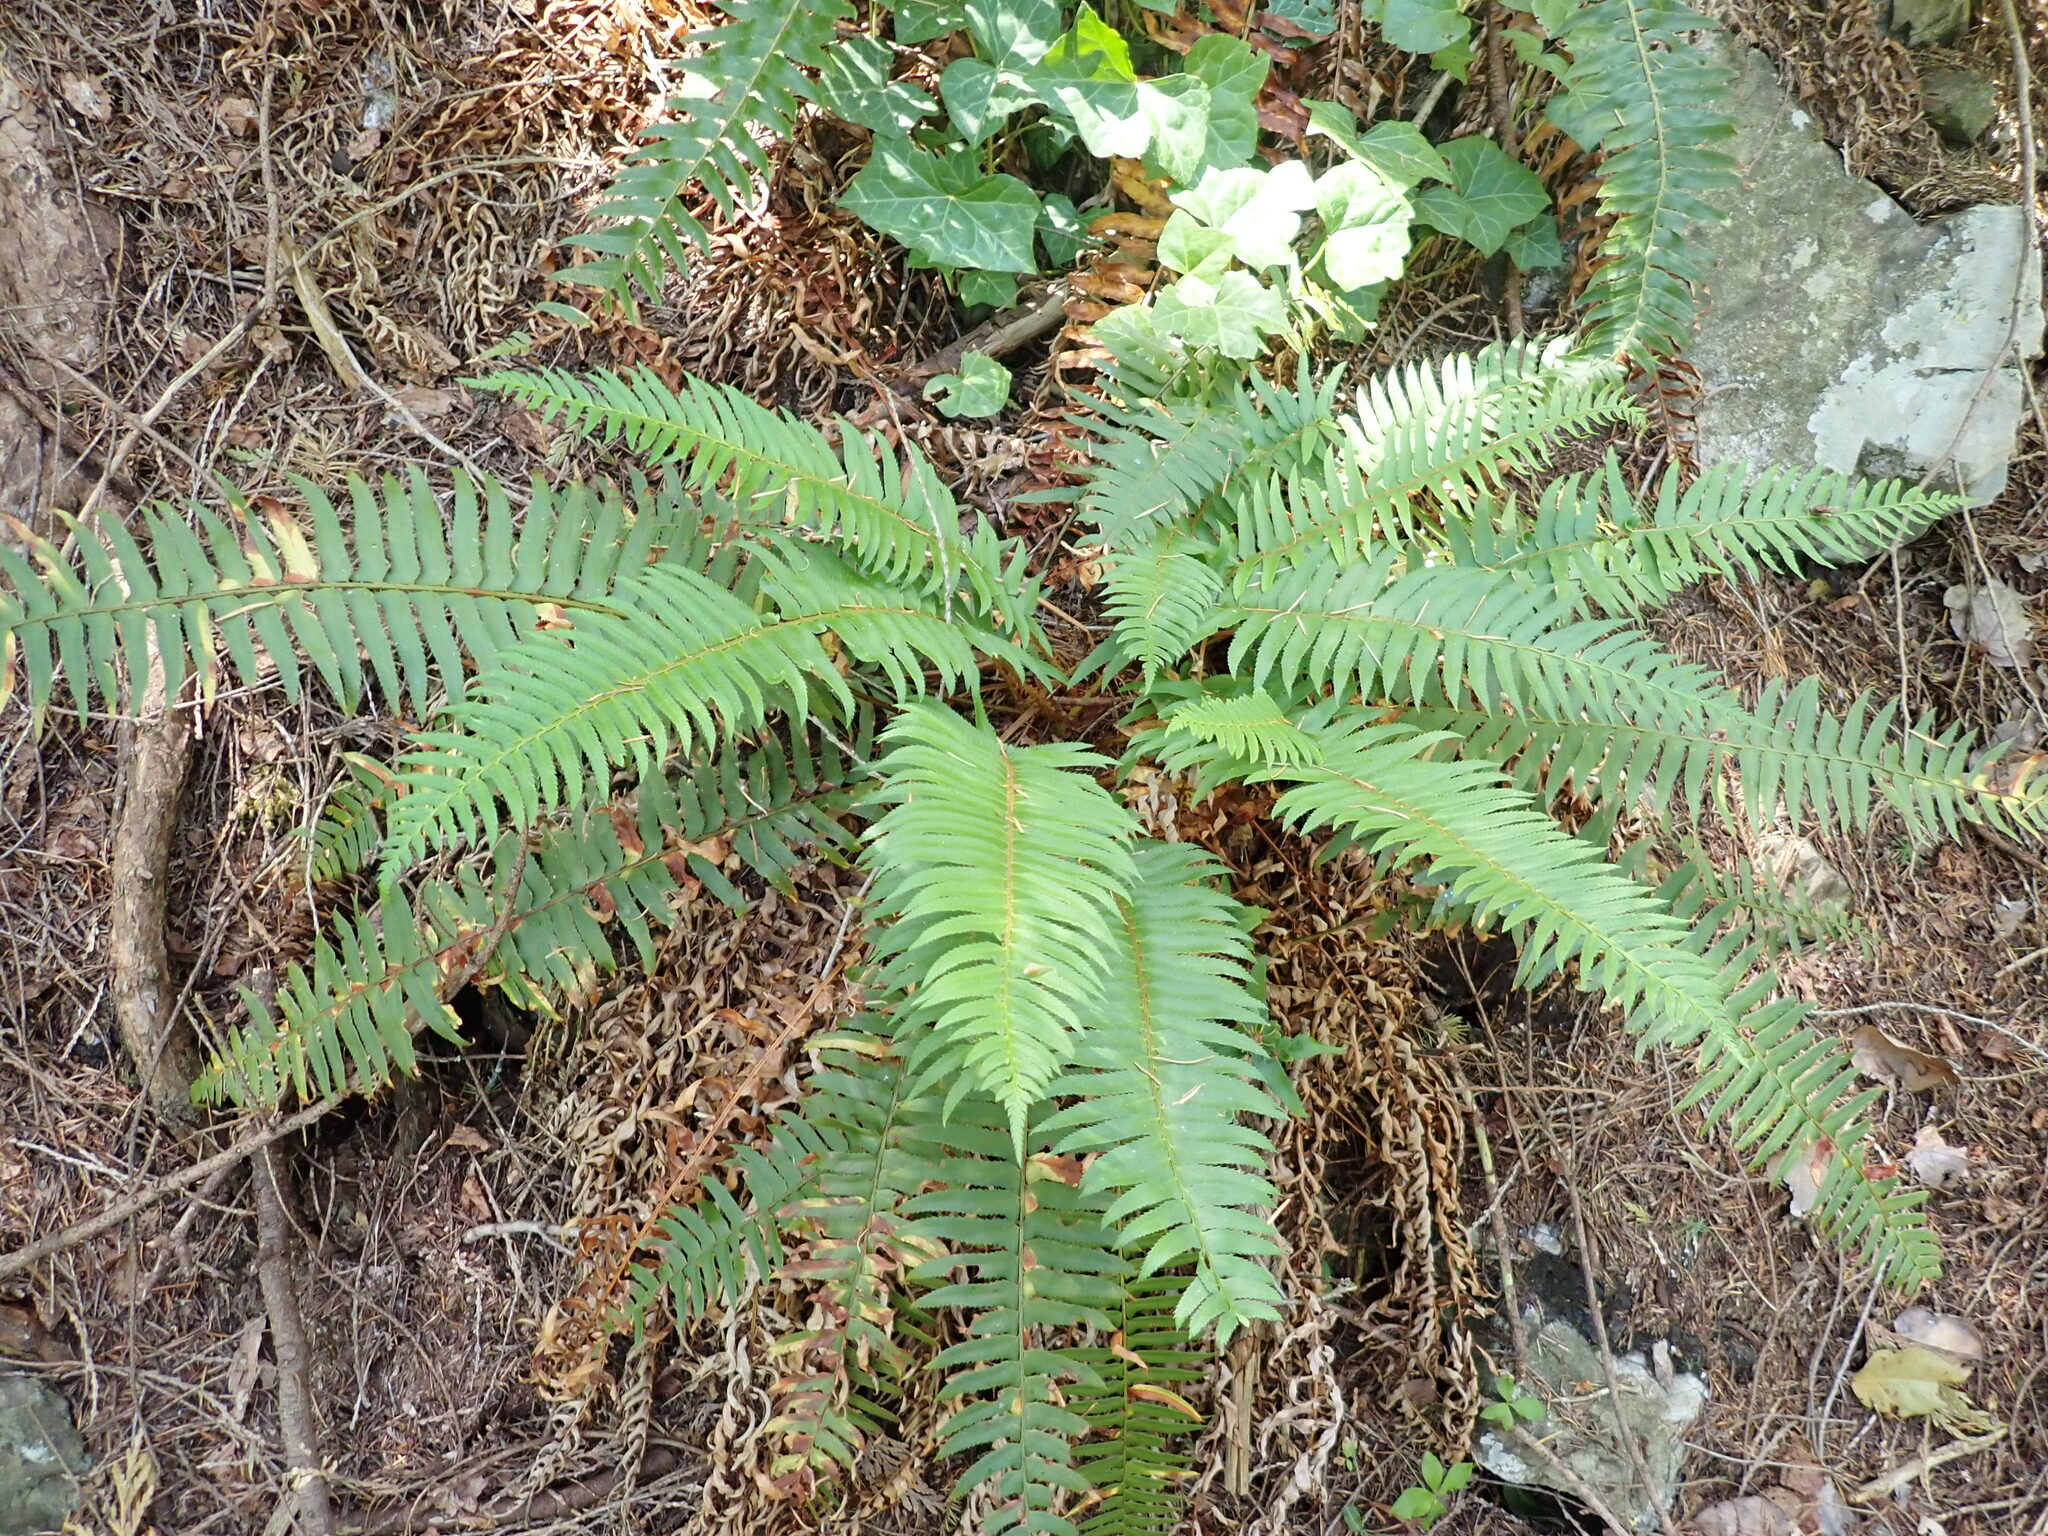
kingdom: Plantae
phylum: Tracheophyta
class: Polypodiopsida
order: Polypodiales
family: Dryopteridaceae
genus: Polystichum
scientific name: Polystichum munitum
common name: Western sword-fern
